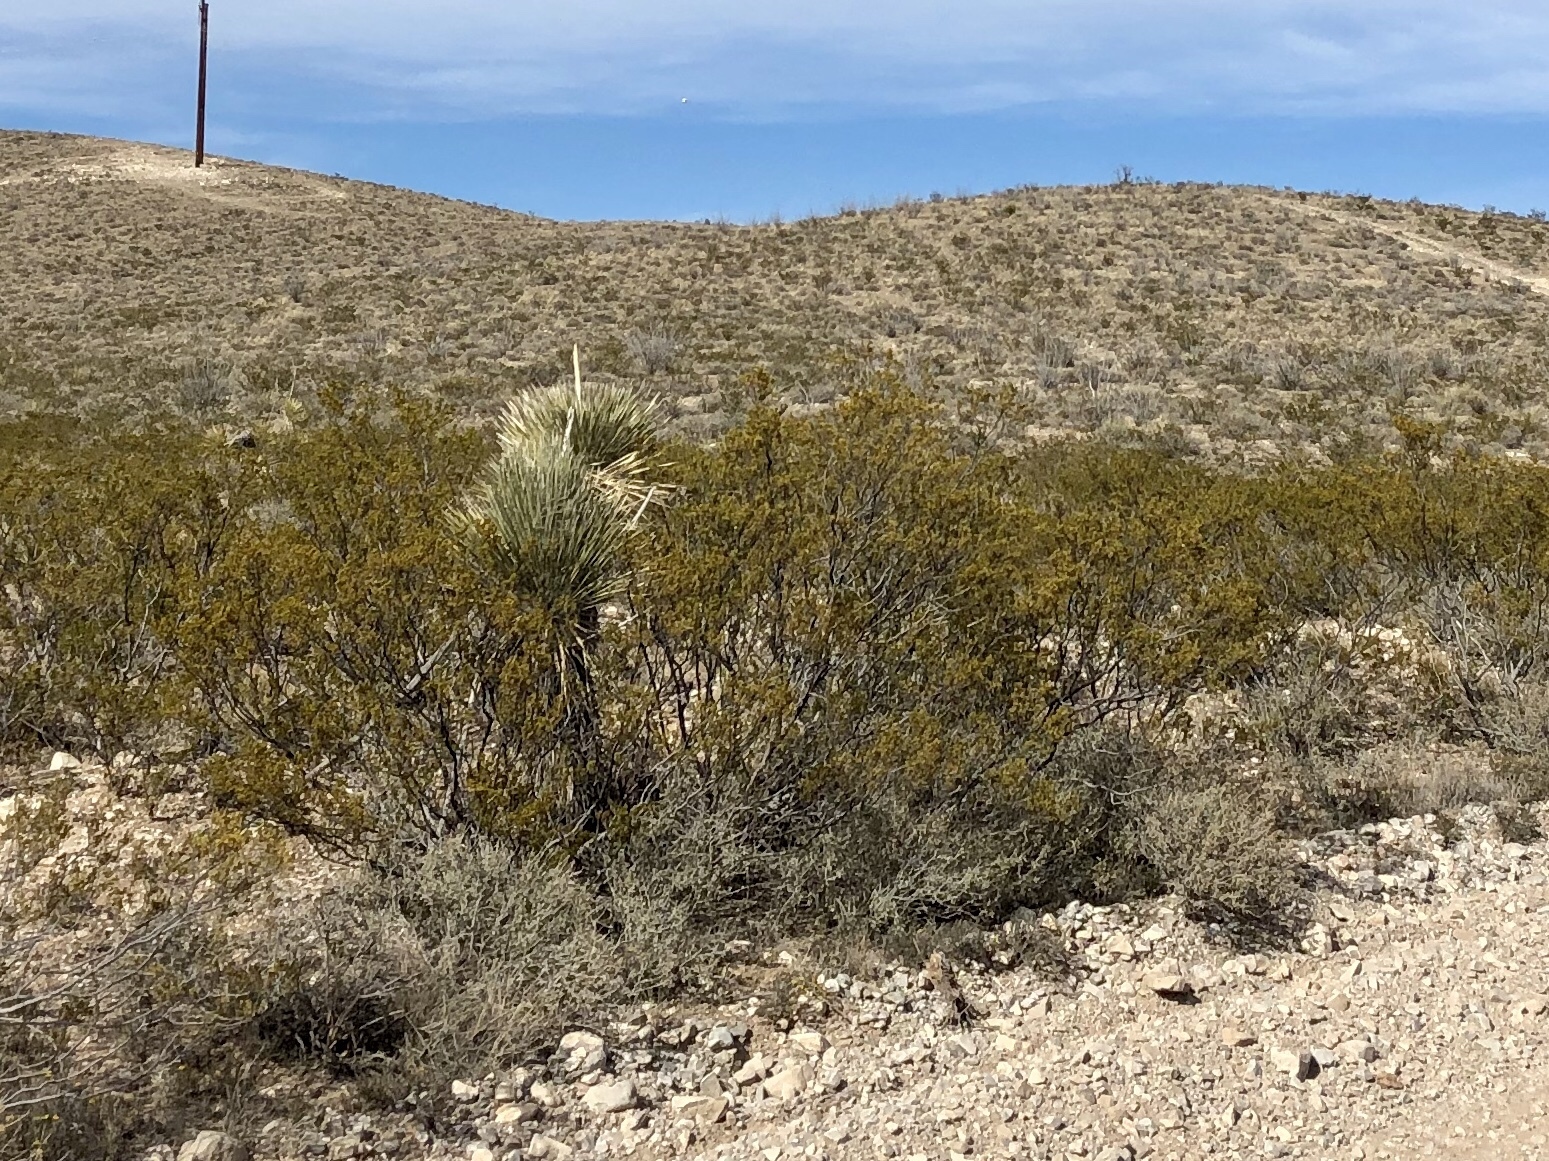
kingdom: Plantae
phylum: Tracheophyta
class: Magnoliopsida
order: Zygophyllales
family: Zygophyllaceae
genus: Larrea
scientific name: Larrea tridentata
